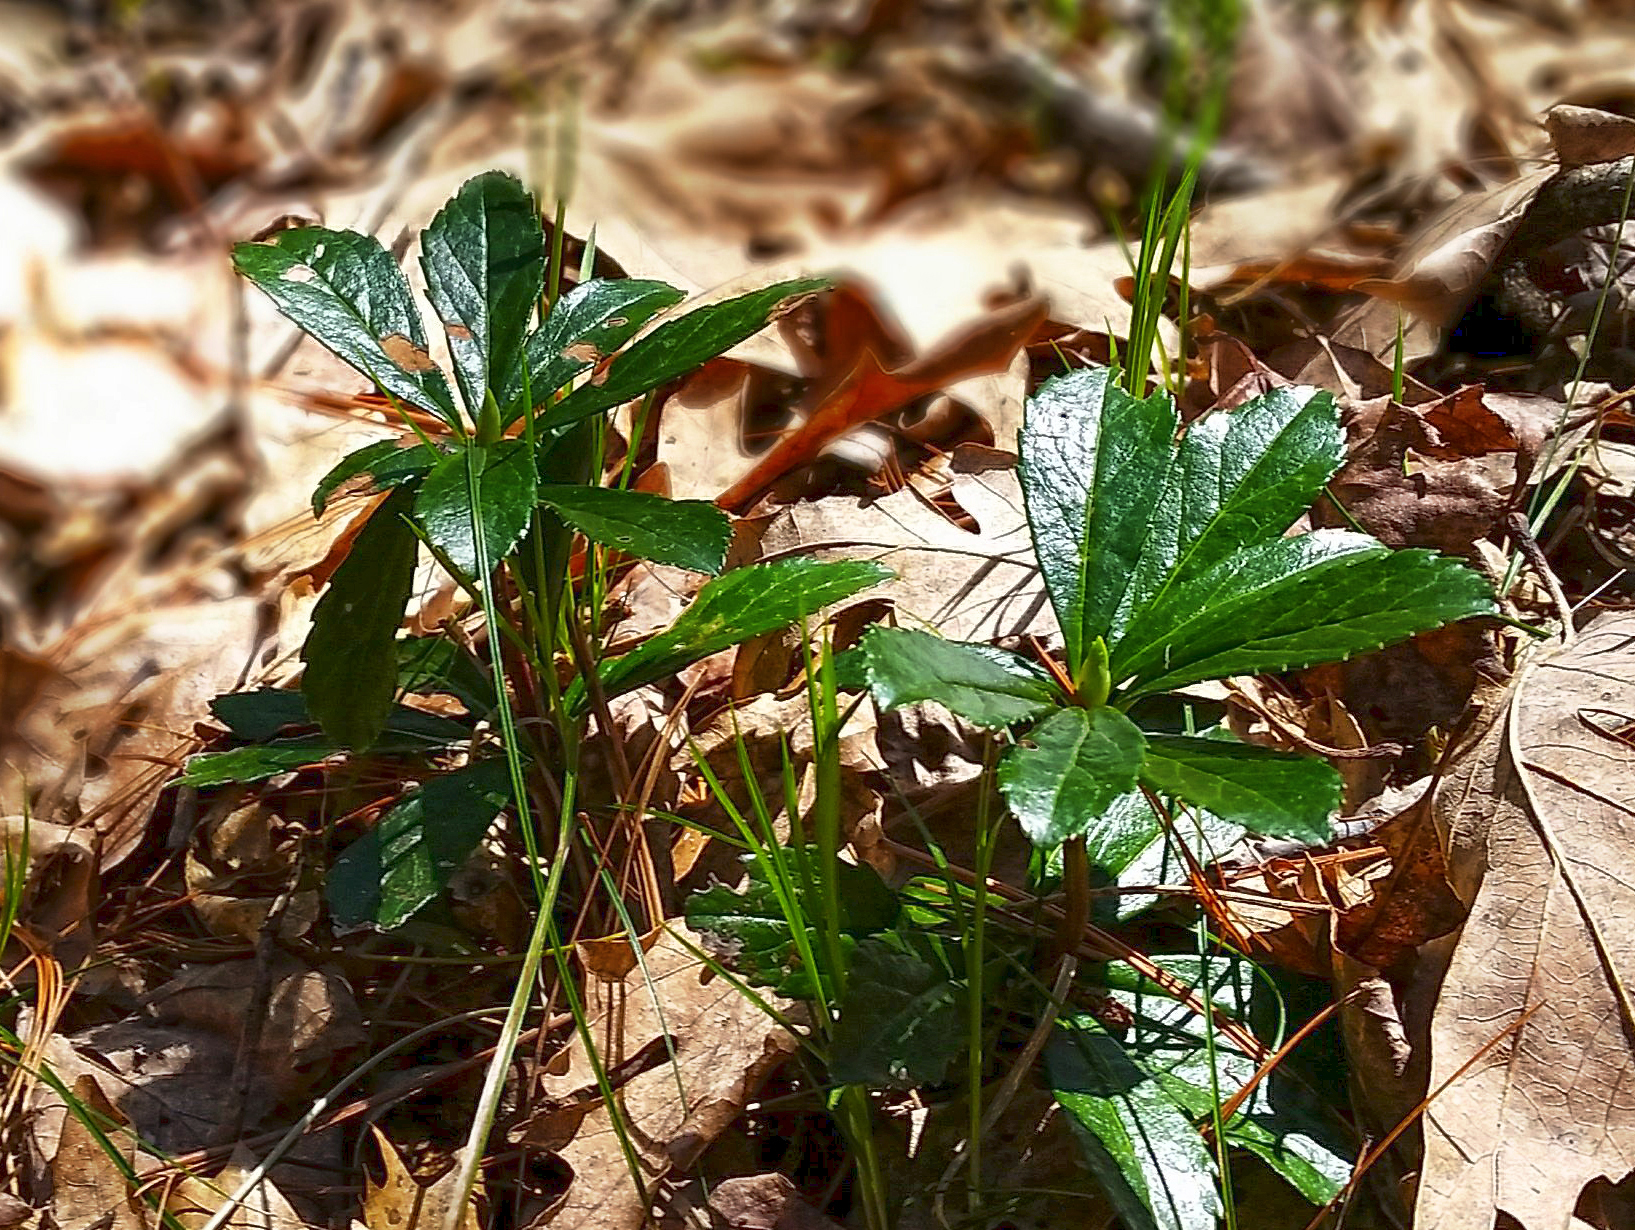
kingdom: Plantae
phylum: Tracheophyta
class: Magnoliopsida
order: Ericales
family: Ericaceae
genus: Chimaphila
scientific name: Chimaphila umbellata
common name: Pipsissewa
